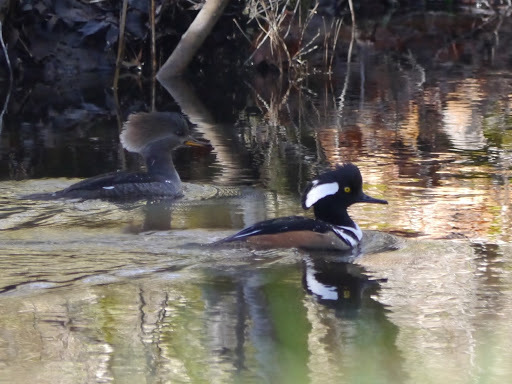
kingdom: Animalia
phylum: Chordata
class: Aves
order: Anseriformes
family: Anatidae
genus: Lophodytes
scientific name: Lophodytes cucullatus
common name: Hooded merganser
